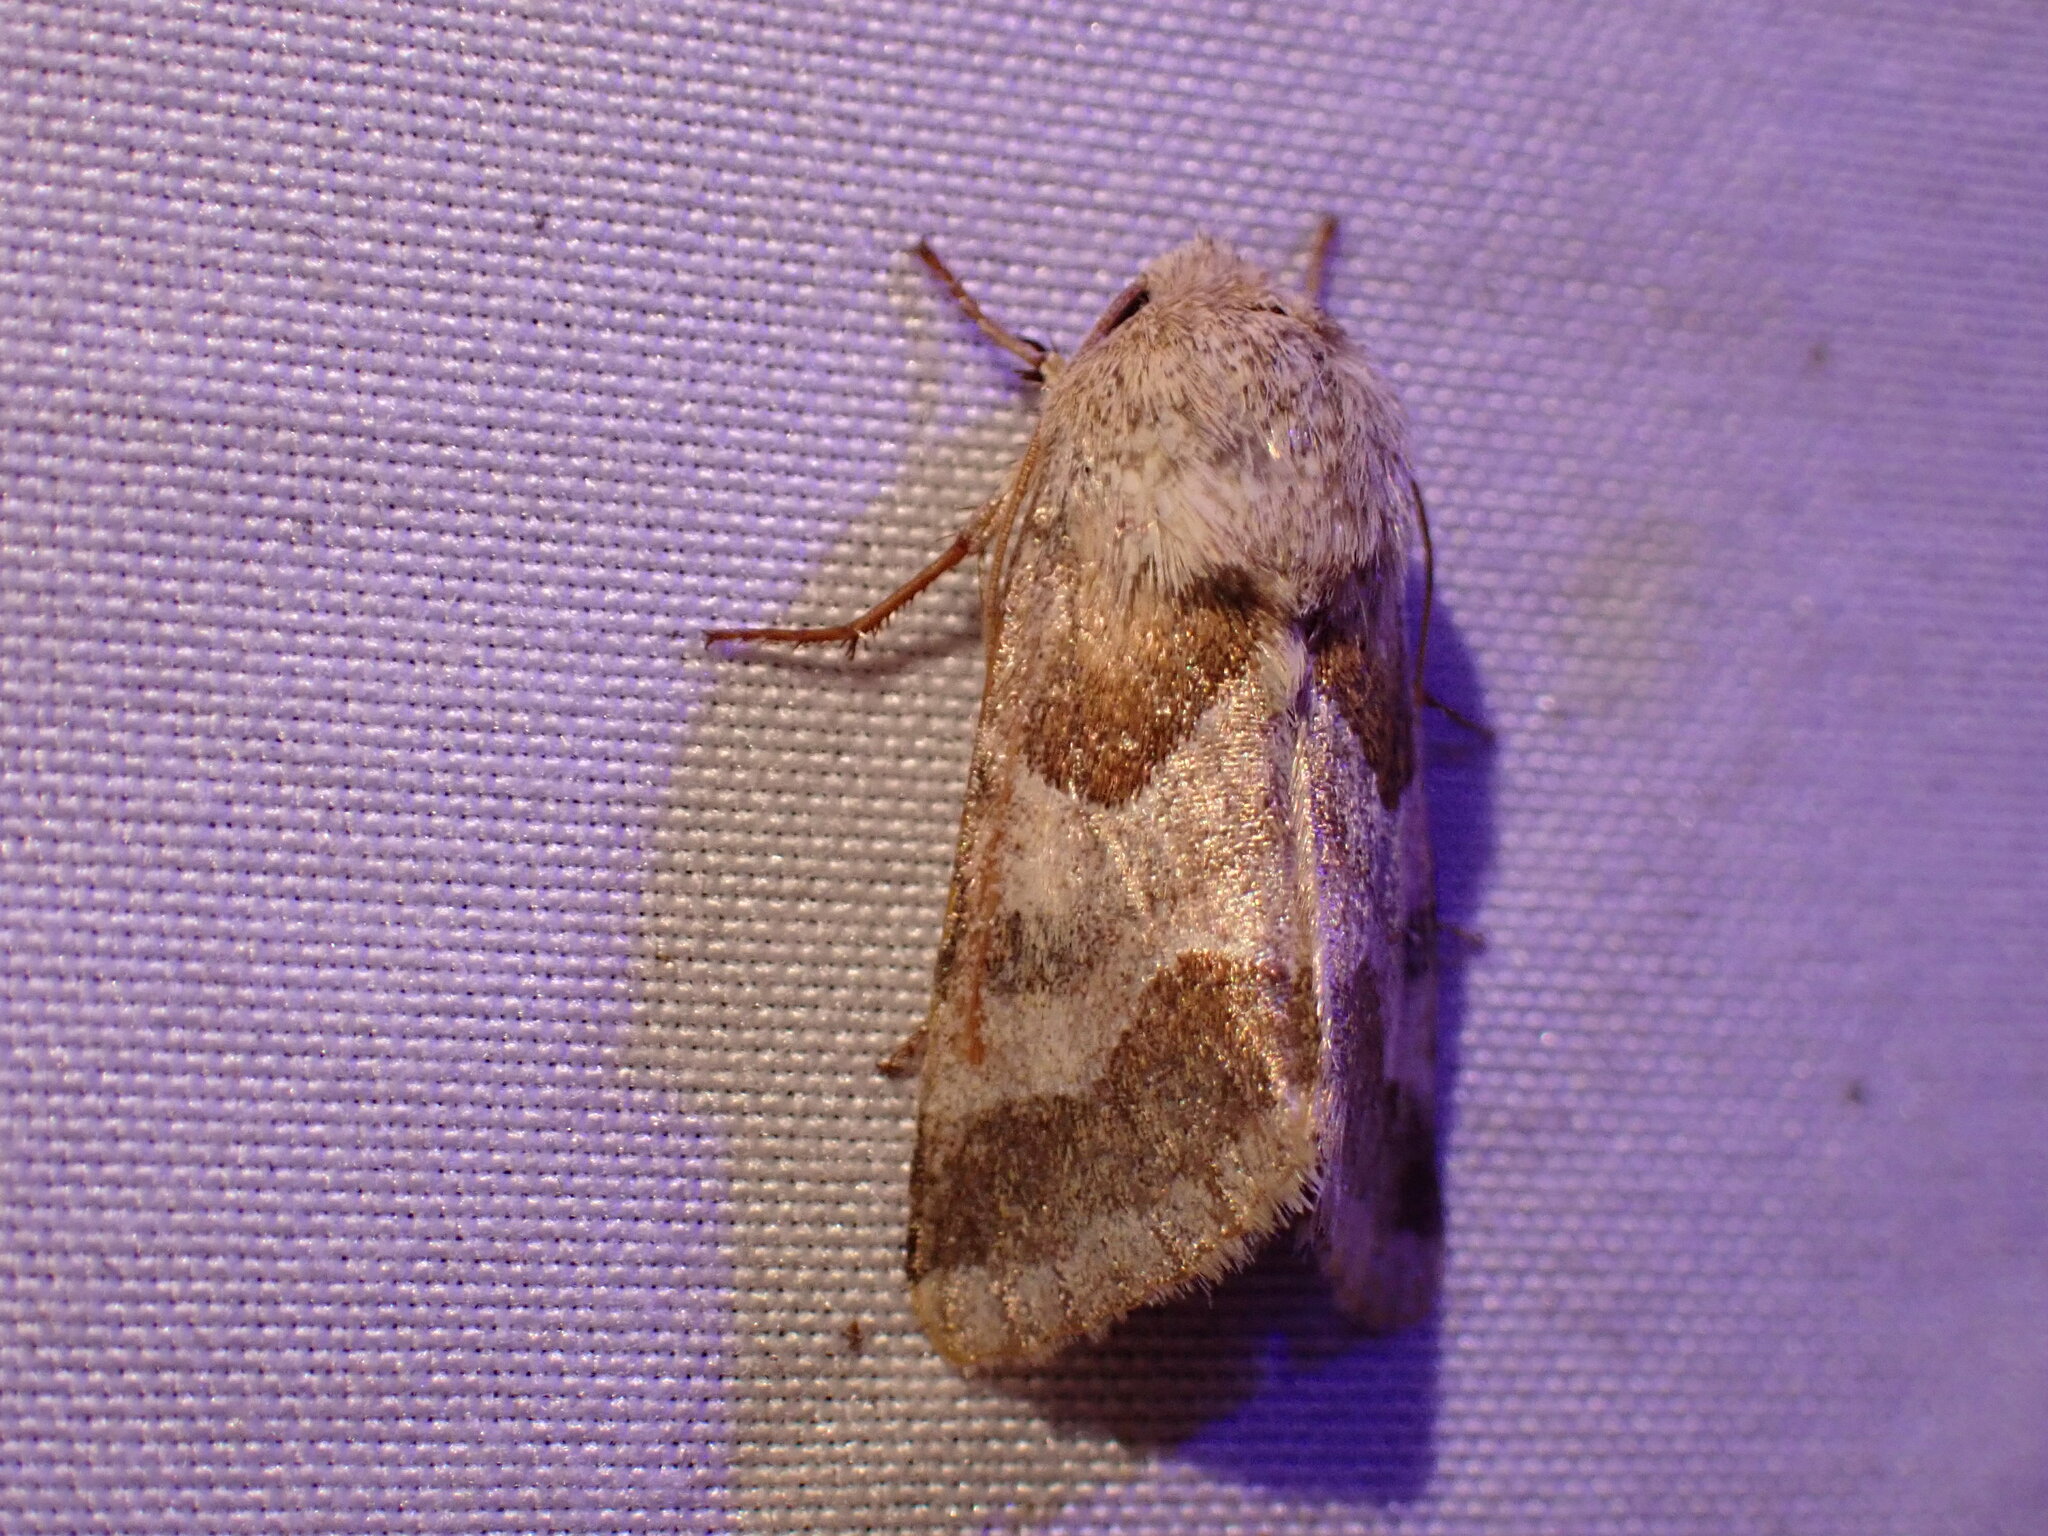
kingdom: Animalia
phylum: Arthropoda
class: Insecta
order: Lepidoptera
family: Noctuidae
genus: Schinia
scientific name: Schinia jaguarina
